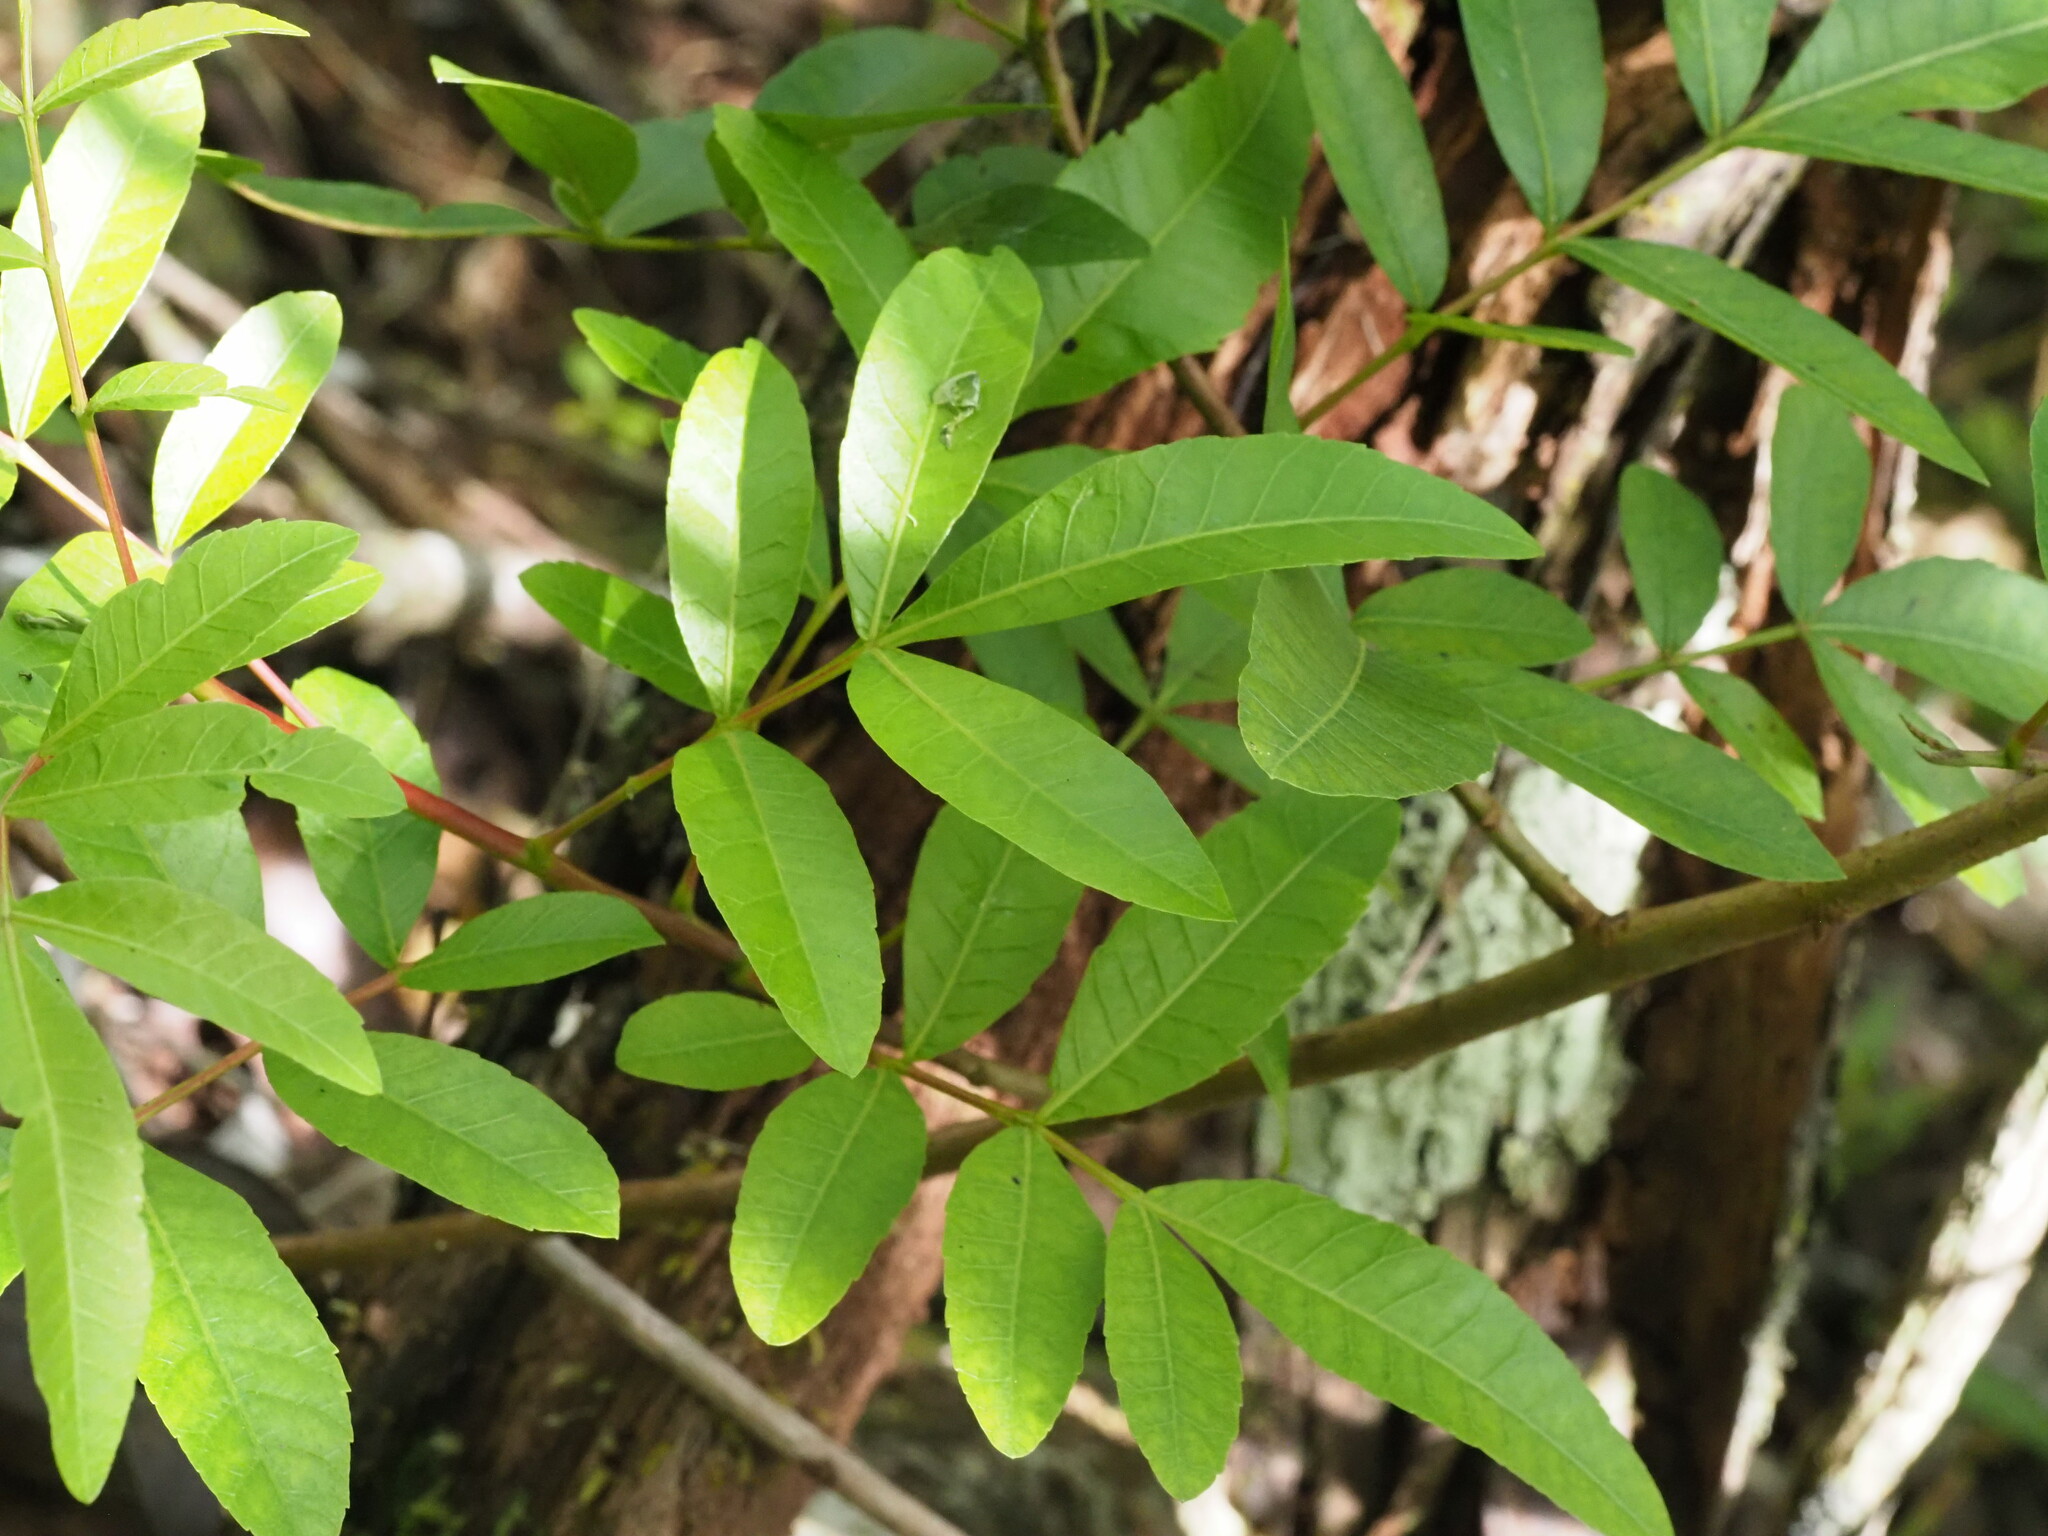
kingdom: Plantae
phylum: Tracheophyta
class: Magnoliopsida
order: Sapindales
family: Anacardiaceae
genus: Schinus
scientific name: Schinus terebinthifolia
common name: Brazilian peppertree
